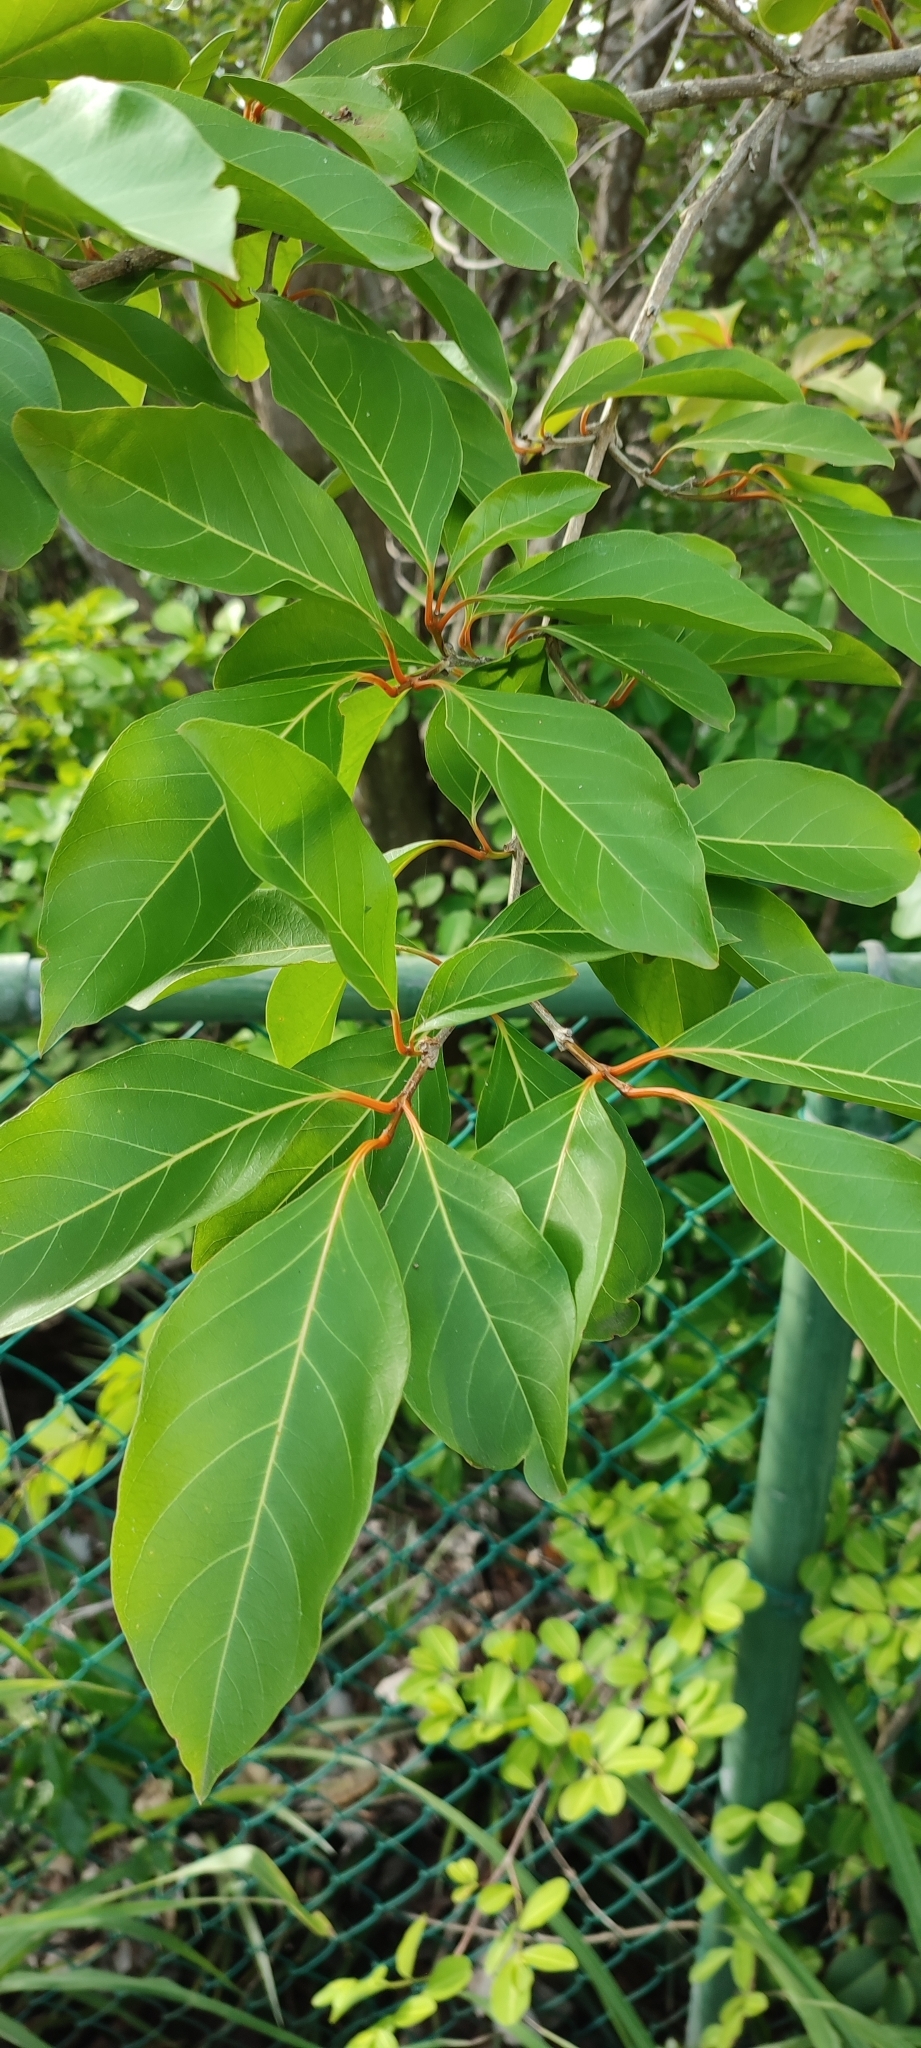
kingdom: Plantae
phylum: Tracheophyta
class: Magnoliopsida
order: Lamiales
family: Verbenaceae
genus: Citharexylum
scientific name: Citharexylum spinosum
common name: Fiddlewood
